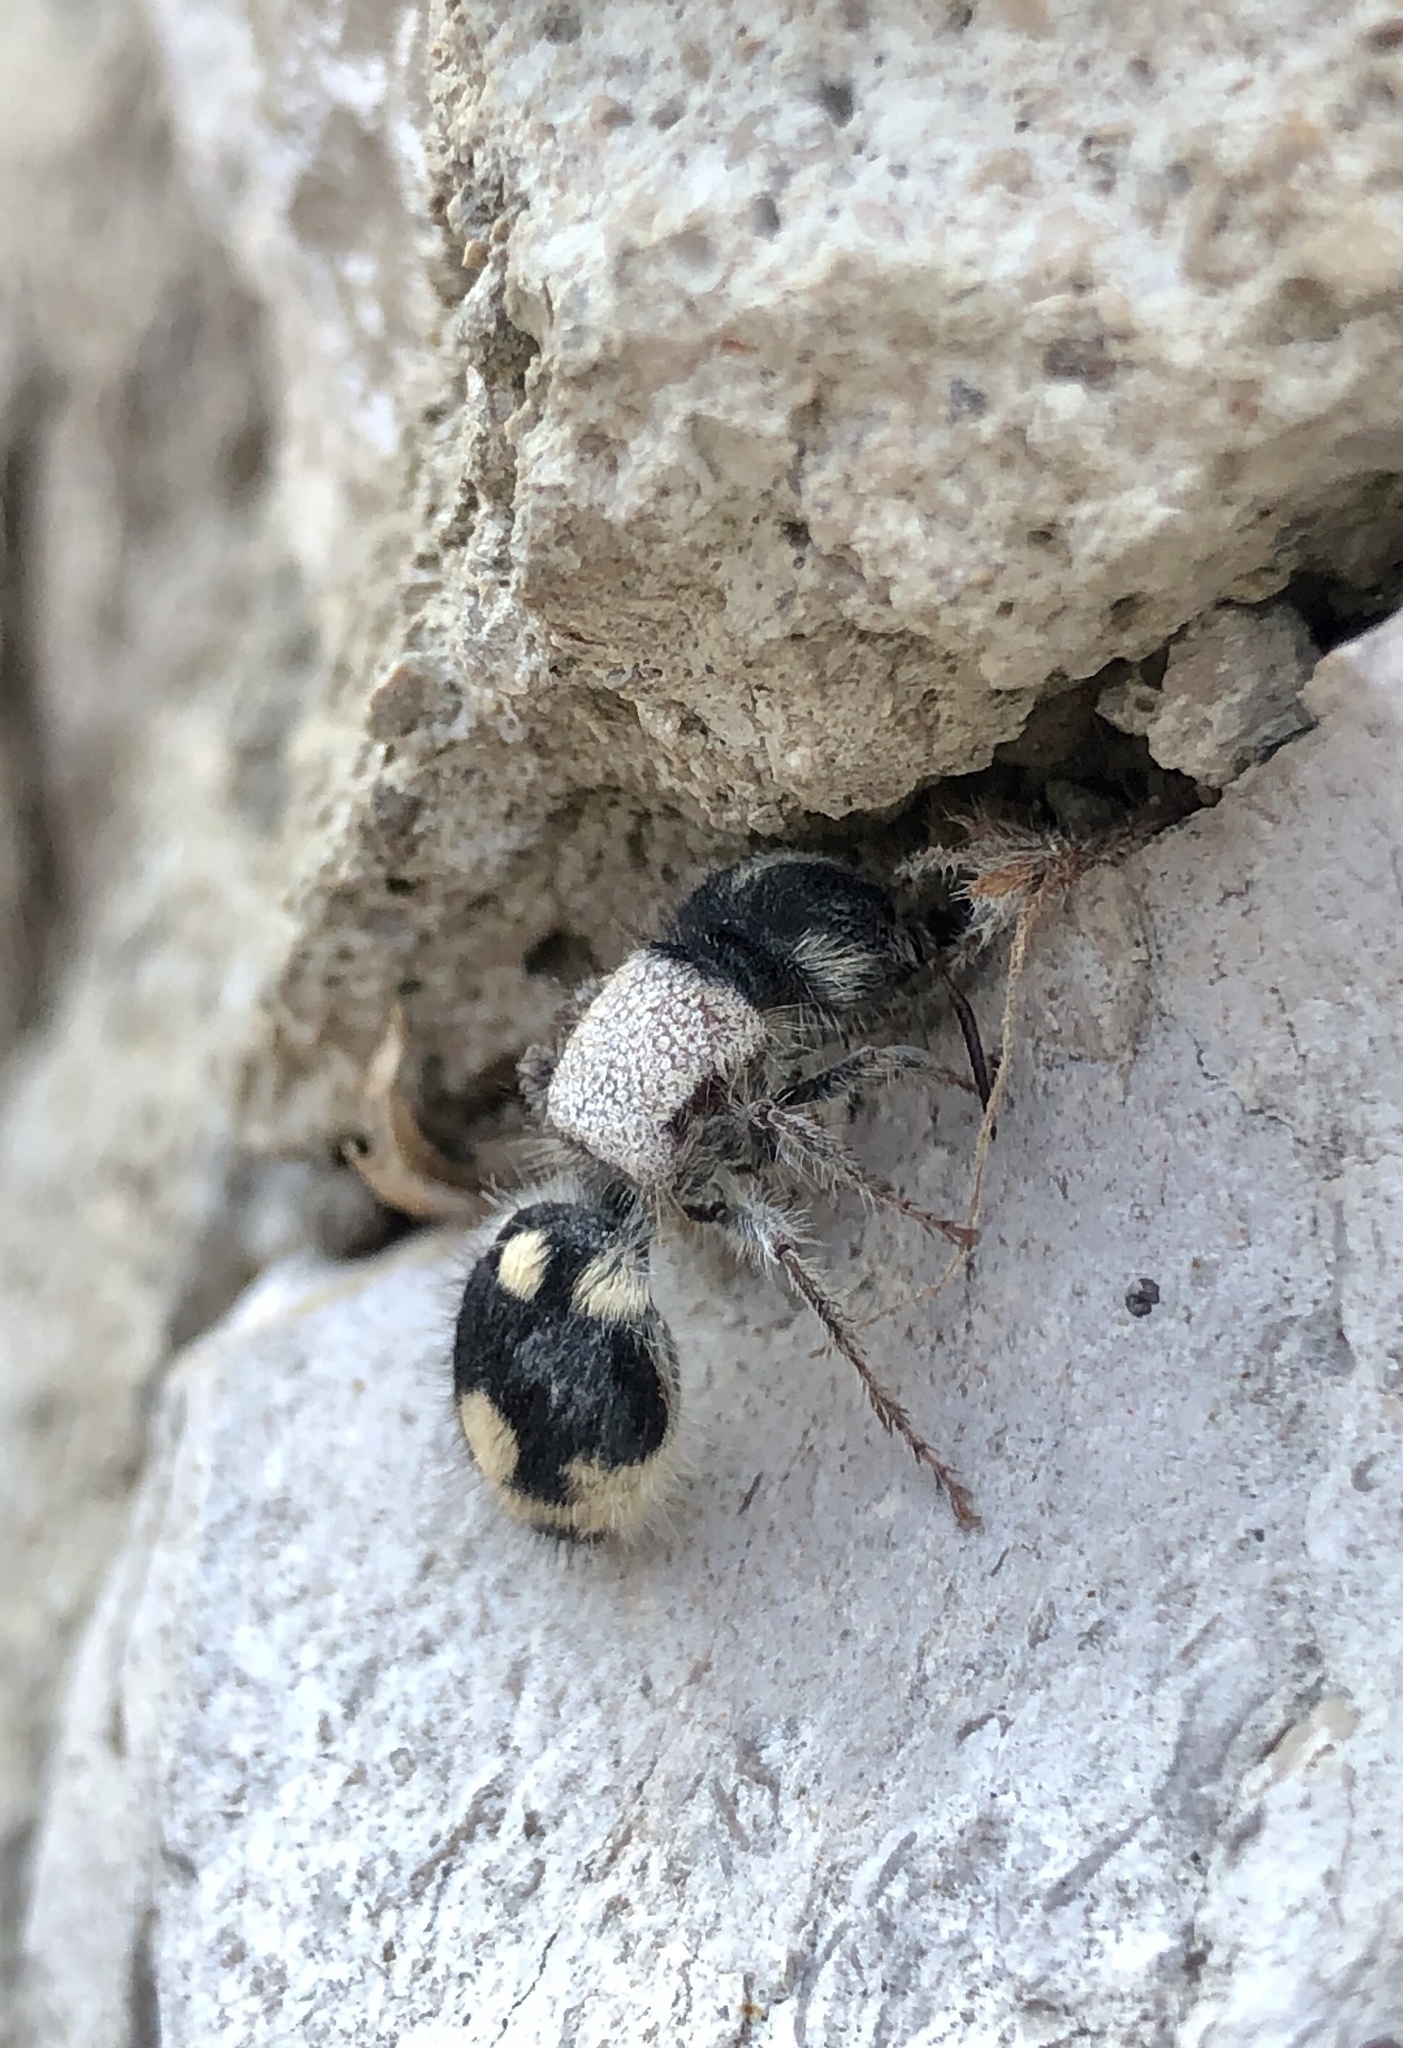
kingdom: Animalia
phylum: Arthropoda
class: Insecta
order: Hymenoptera
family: Mutillidae
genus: Ronisia
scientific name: Ronisia barbarula
